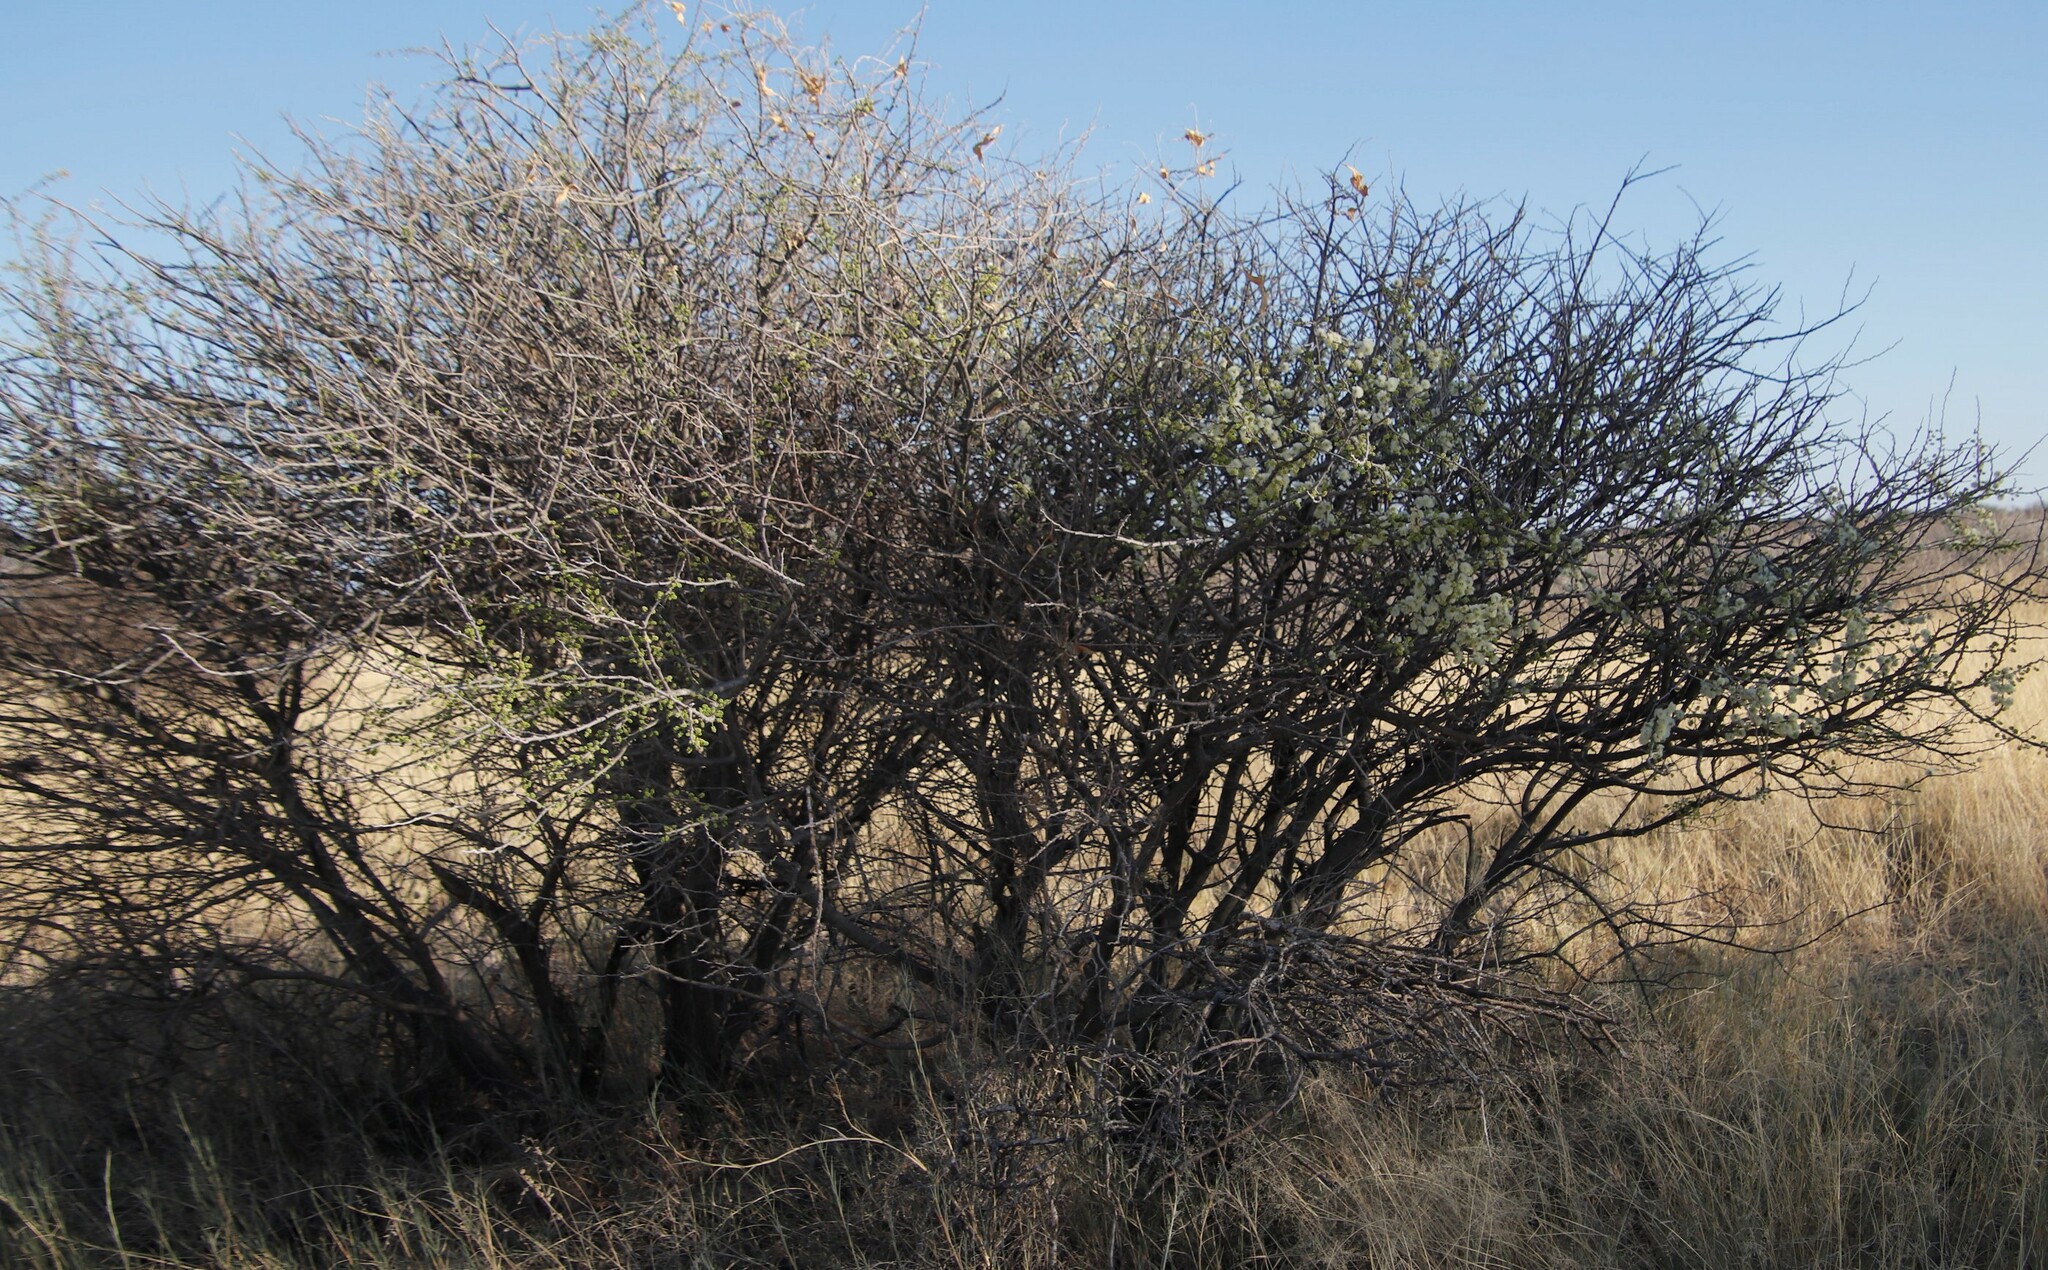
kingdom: Plantae
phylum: Tracheophyta
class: Magnoliopsida
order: Fabales
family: Fabaceae
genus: Senegalia
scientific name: Senegalia mellifera
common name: Hookthorn
